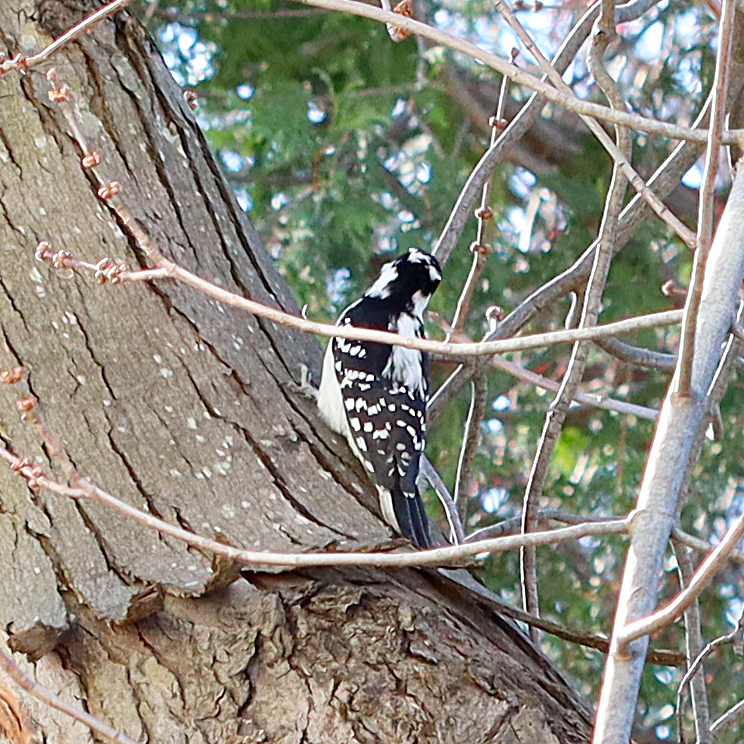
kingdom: Animalia
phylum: Chordata
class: Aves
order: Piciformes
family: Picidae
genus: Dryobates
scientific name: Dryobates pubescens
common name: Downy woodpecker
